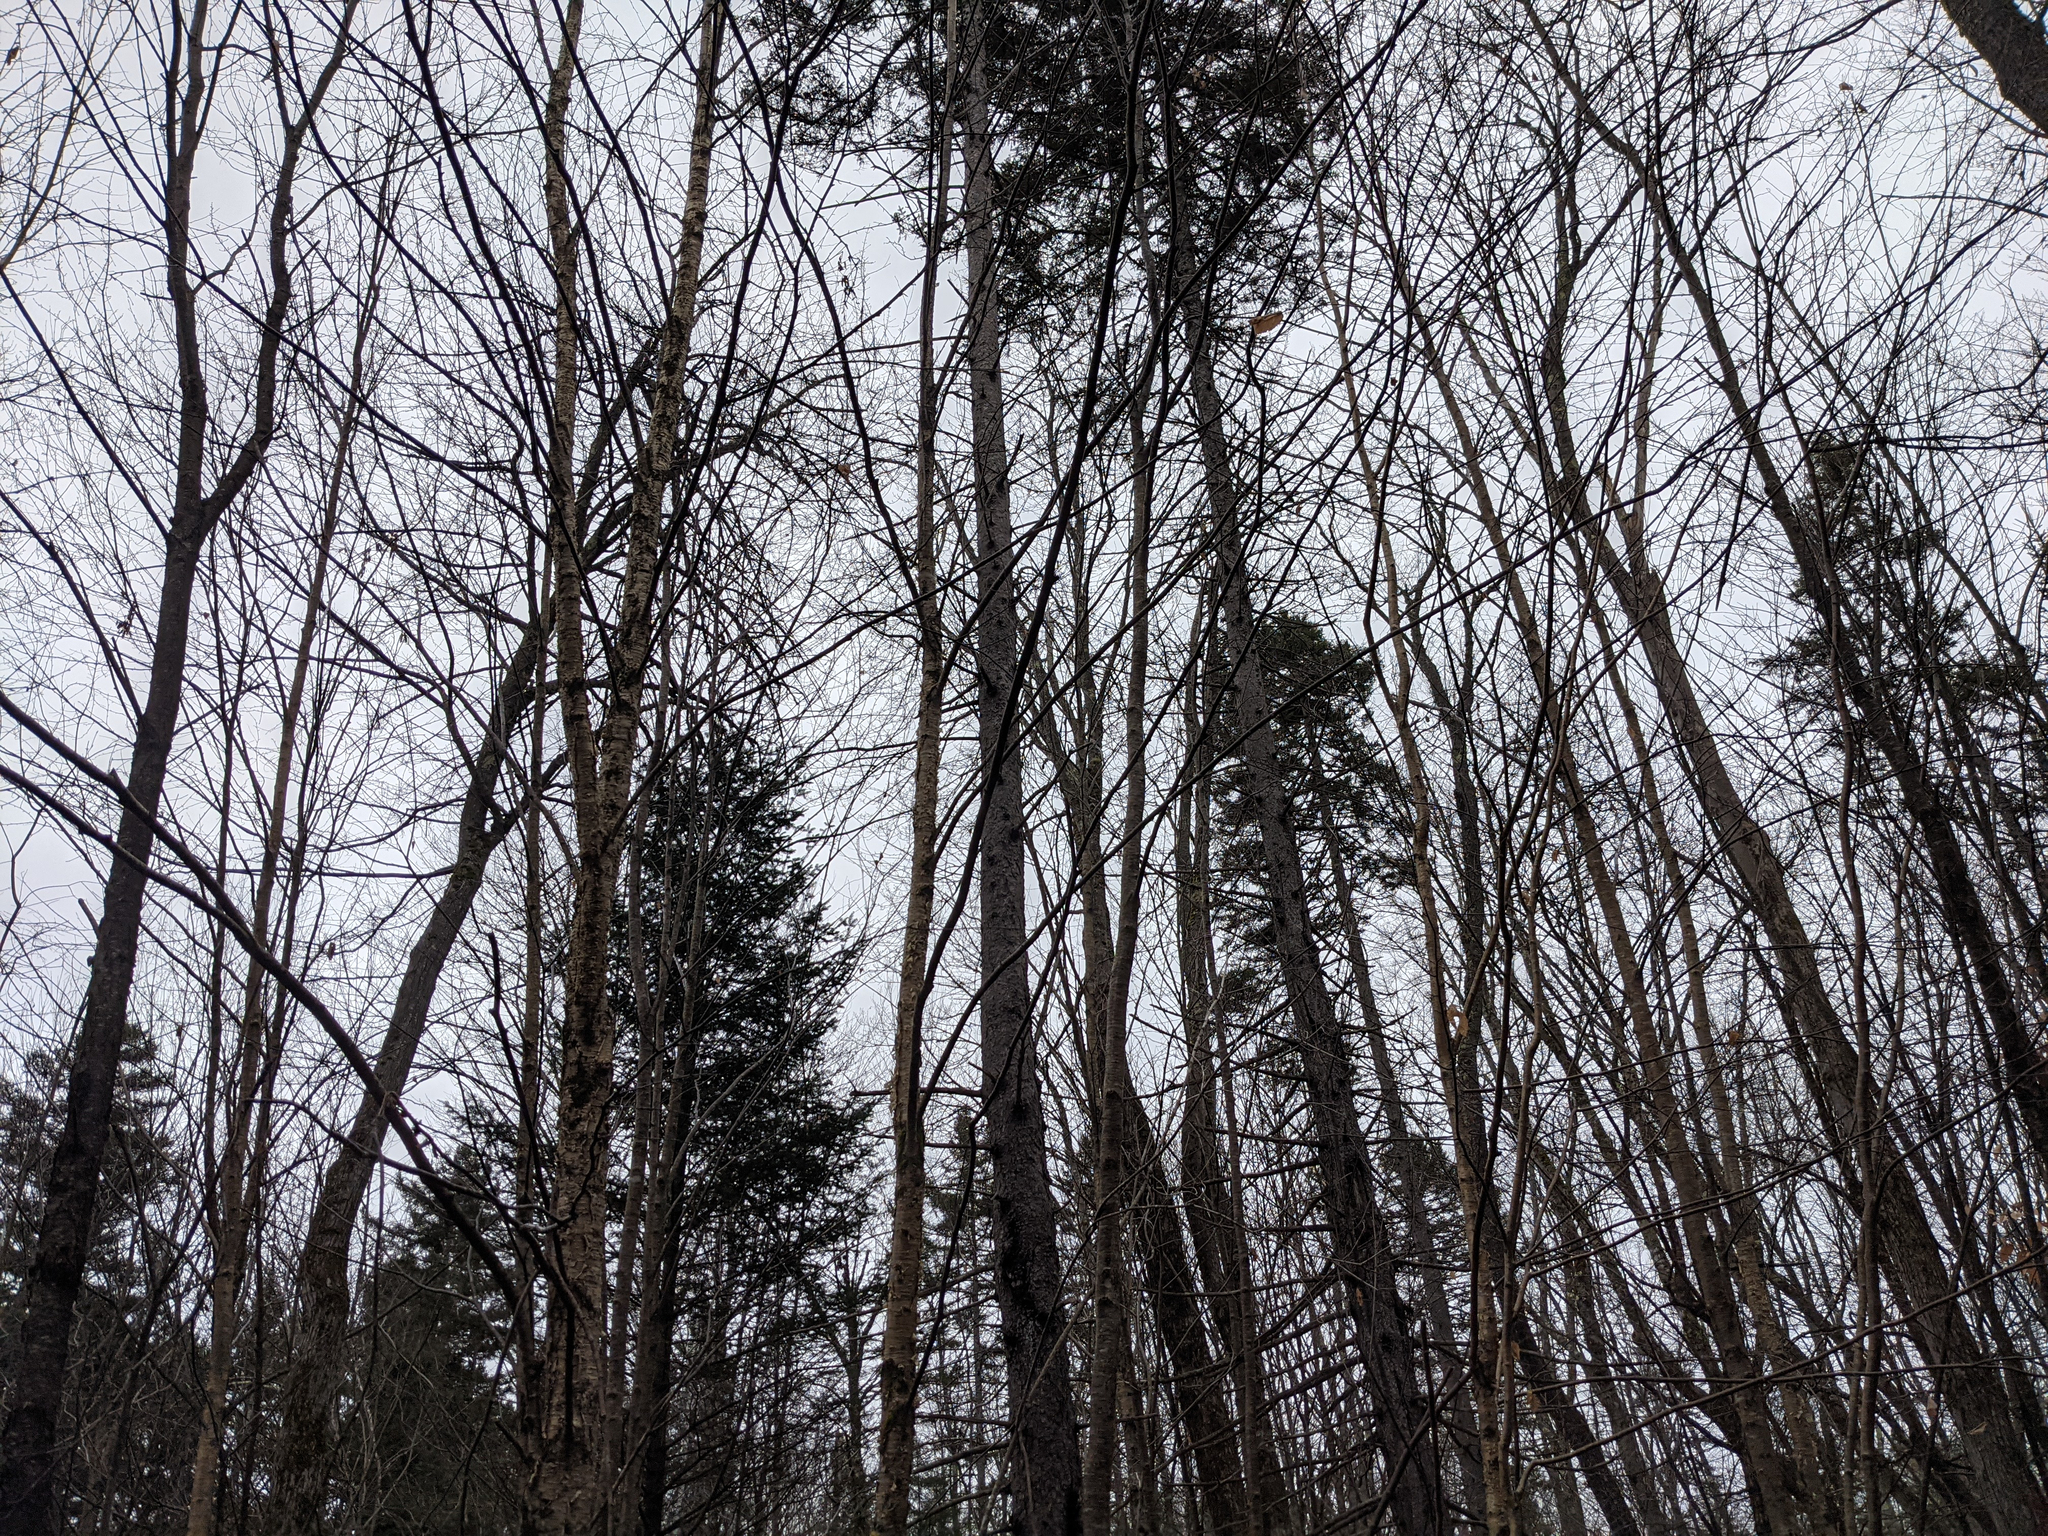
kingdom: Plantae
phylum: Tracheophyta
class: Magnoliopsida
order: Fagales
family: Betulaceae
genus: Betula
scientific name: Betula alleghaniensis
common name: Yellow birch
